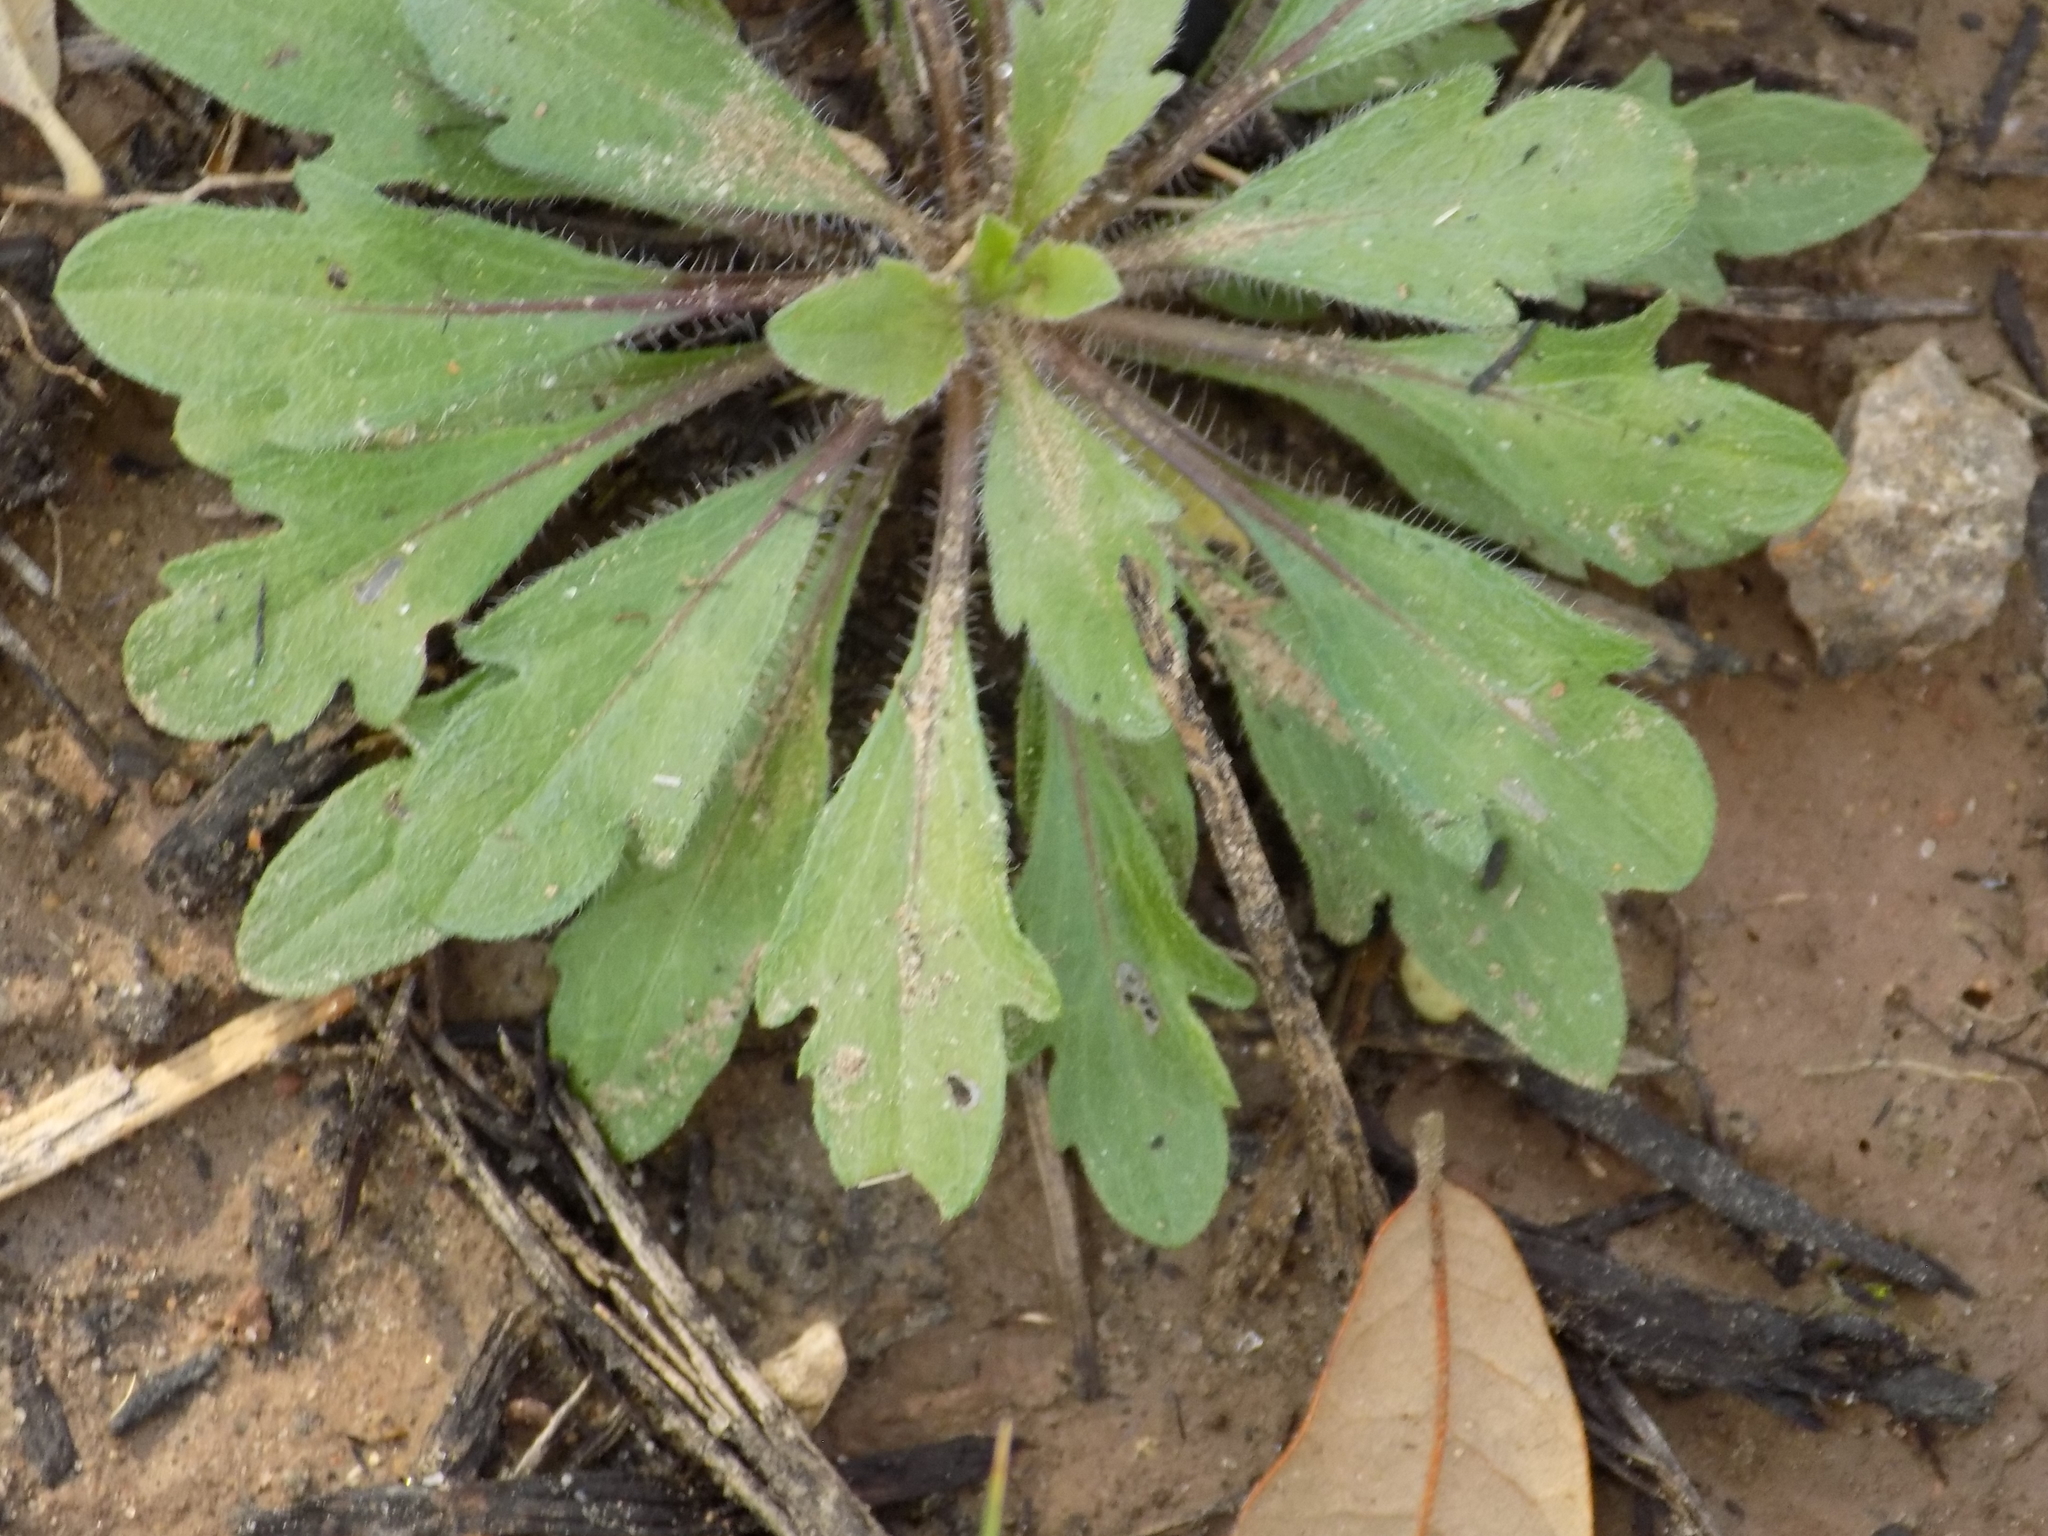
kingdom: Plantae
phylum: Tracheophyta
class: Magnoliopsida
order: Brassicales
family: Brassicaceae
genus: Capsella
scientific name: Capsella bursa-pastoris
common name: Shepherd's purse
